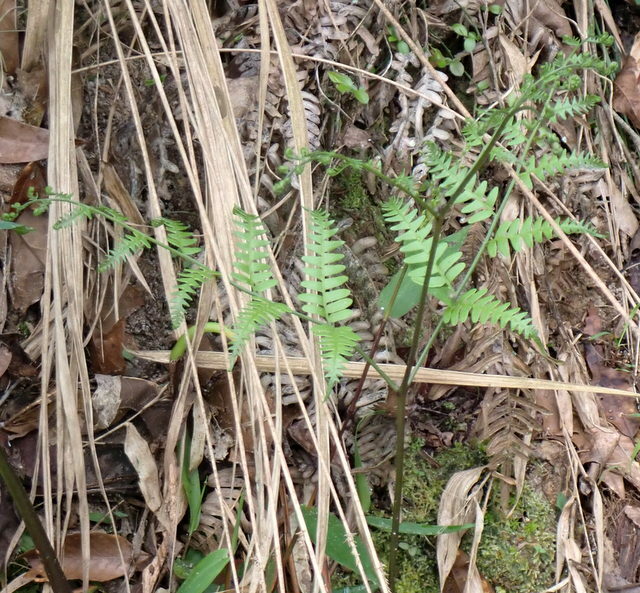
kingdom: Plantae
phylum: Tracheophyta
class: Polypodiopsida
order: Polypodiales
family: Dennstaedtiaceae
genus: Pteridium
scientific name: Pteridium
